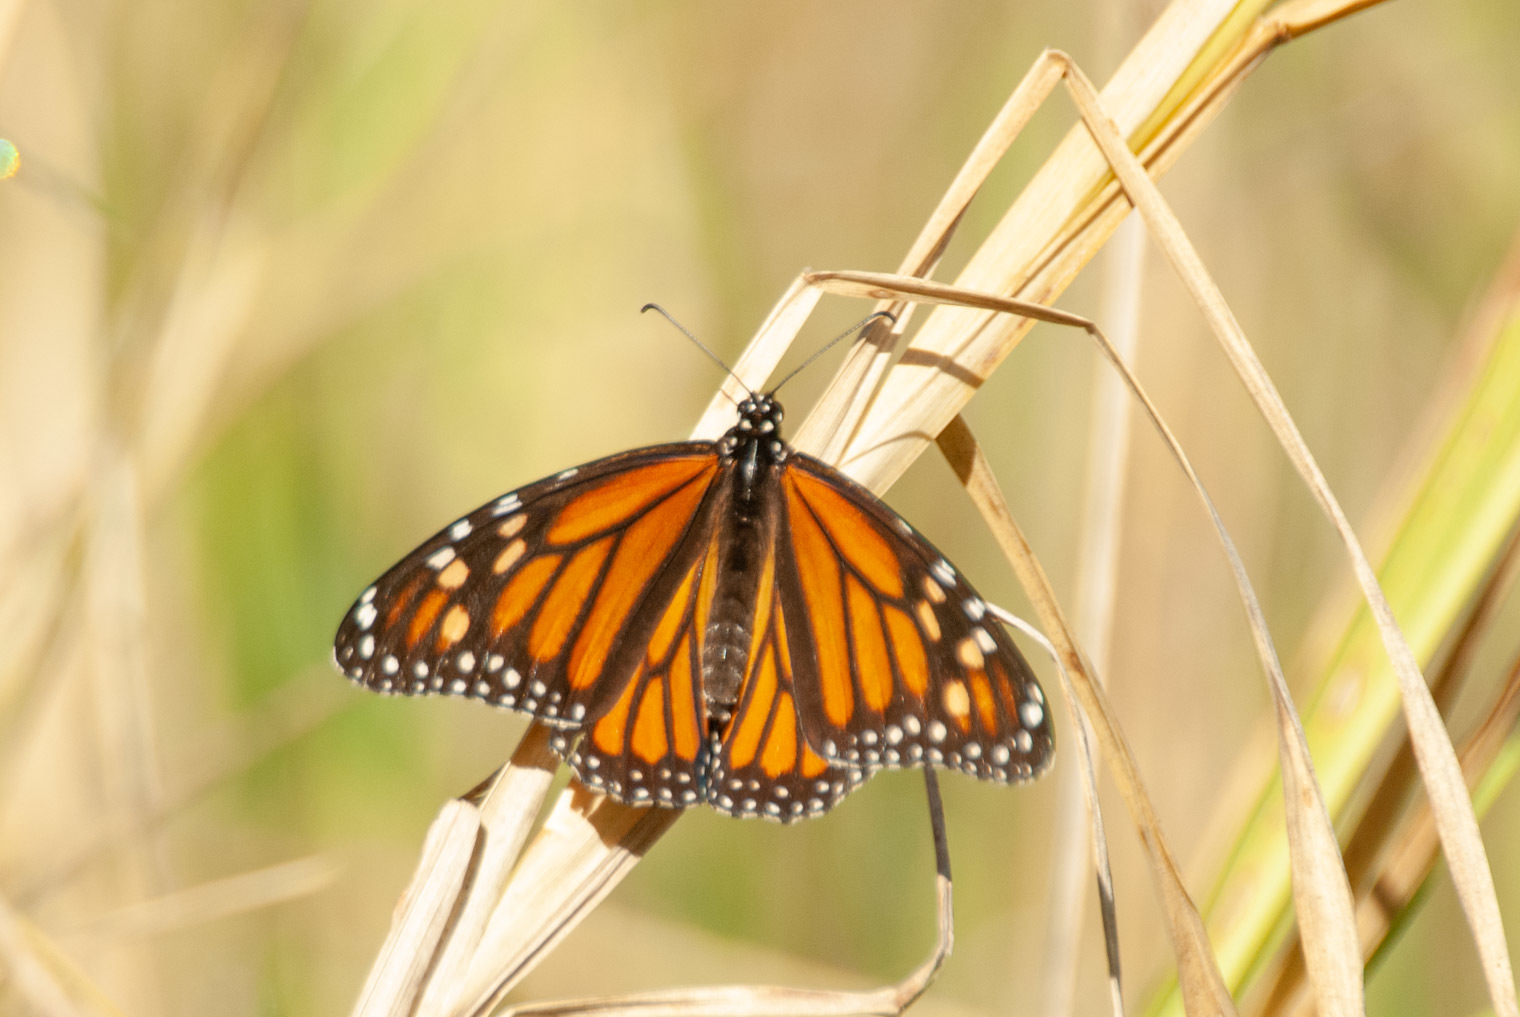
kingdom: Animalia
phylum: Arthropoda
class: Insecta
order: Lepidoptera
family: Nymphalidae
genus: Danaus
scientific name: Danaus plexippus
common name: Monarch
